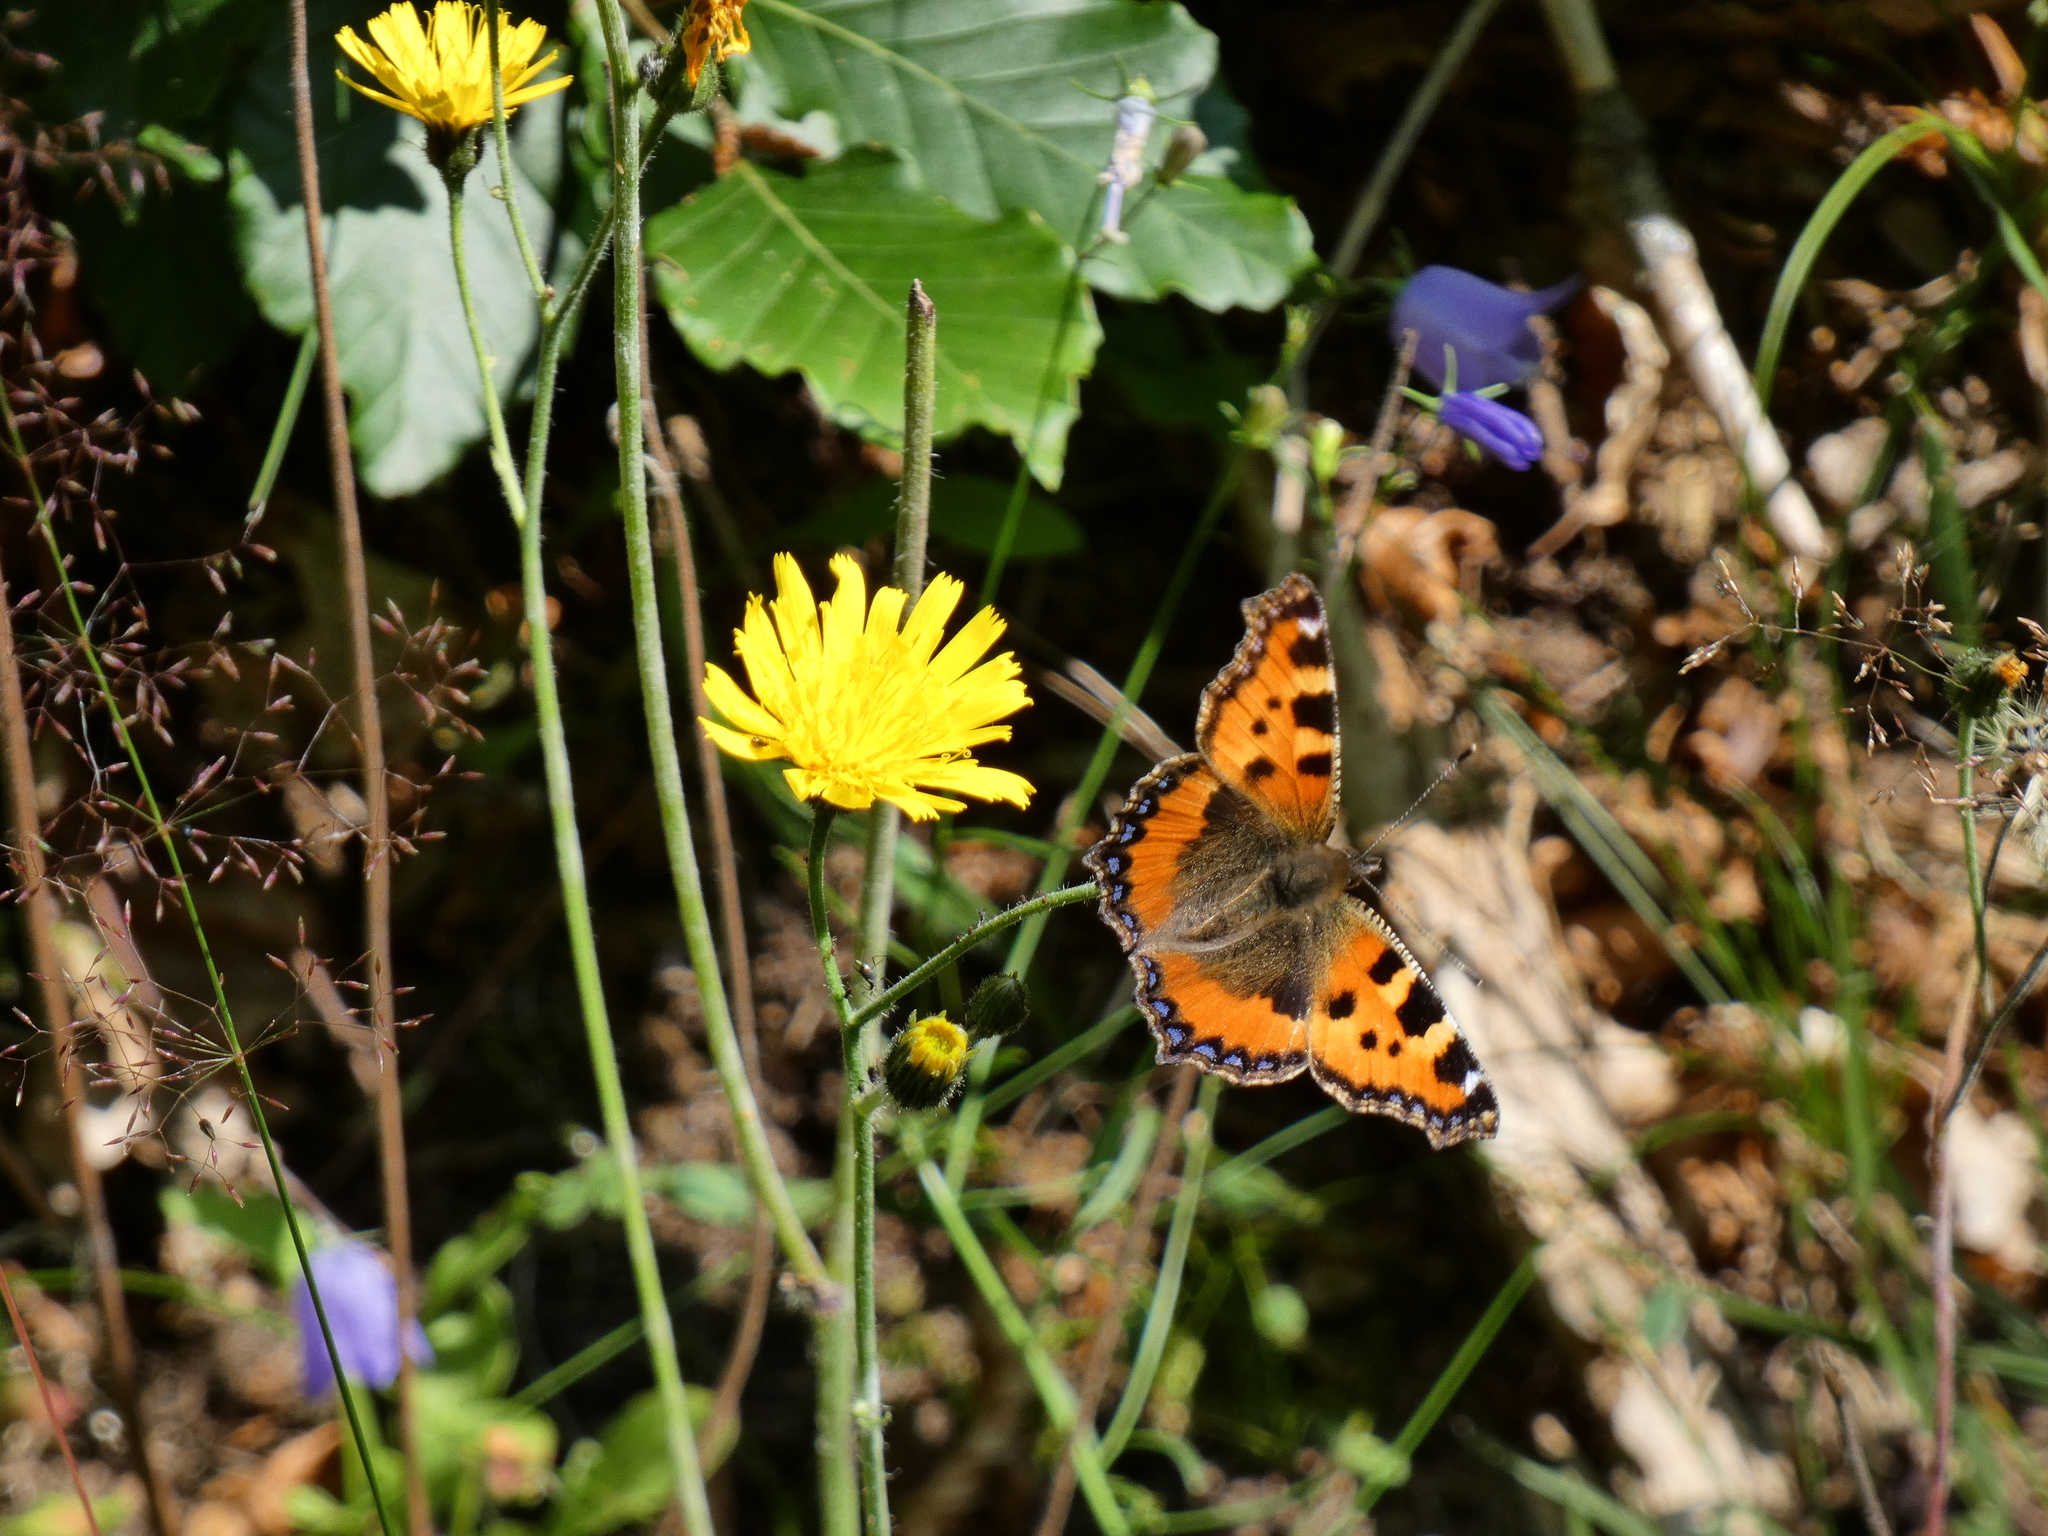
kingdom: Animalia
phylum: Arthropoda
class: Insecta
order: Lepidoptera
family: Nymphalidae
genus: Aglais
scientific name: Aglais urticae
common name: Small tortoiseshell
